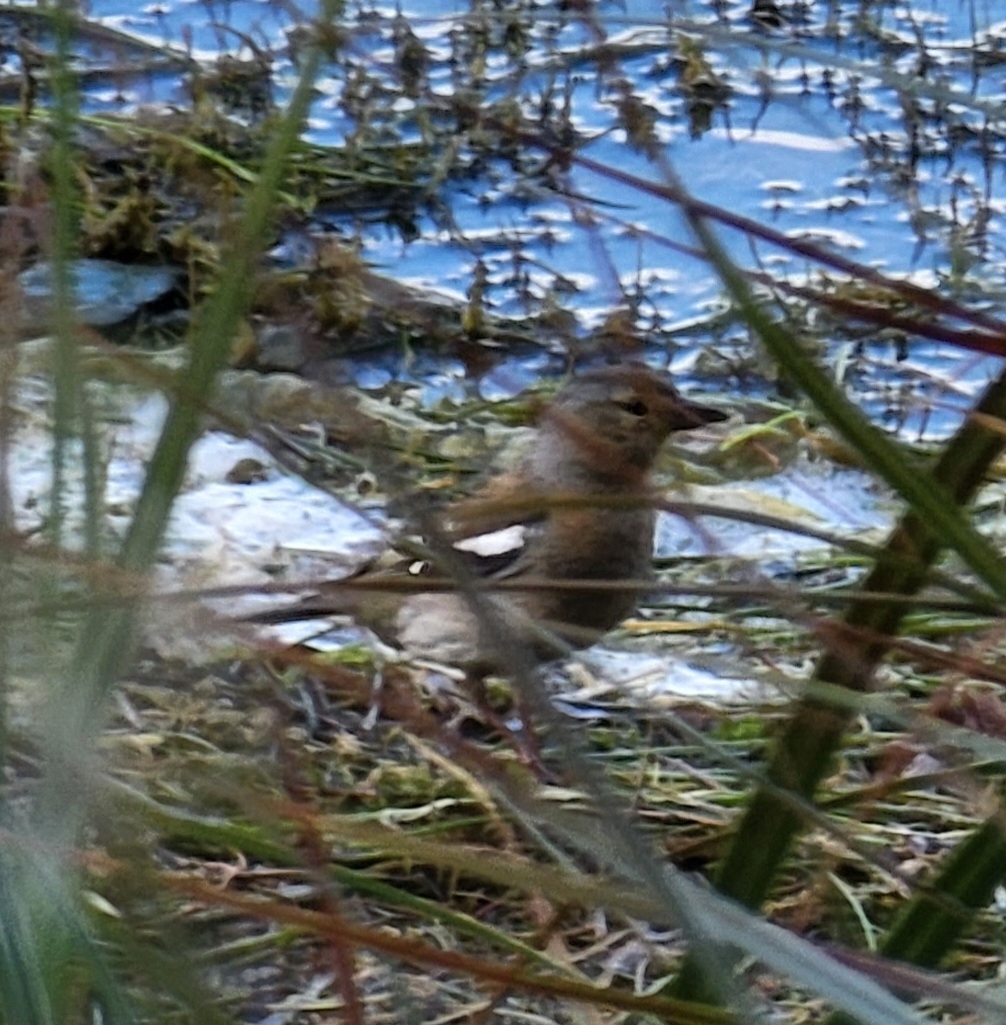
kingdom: Animalia
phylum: Chordata
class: Aves
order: Passeriformes
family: Fringillidae
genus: Fringilla
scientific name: Fringilla coelebs
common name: Common chaffinch
